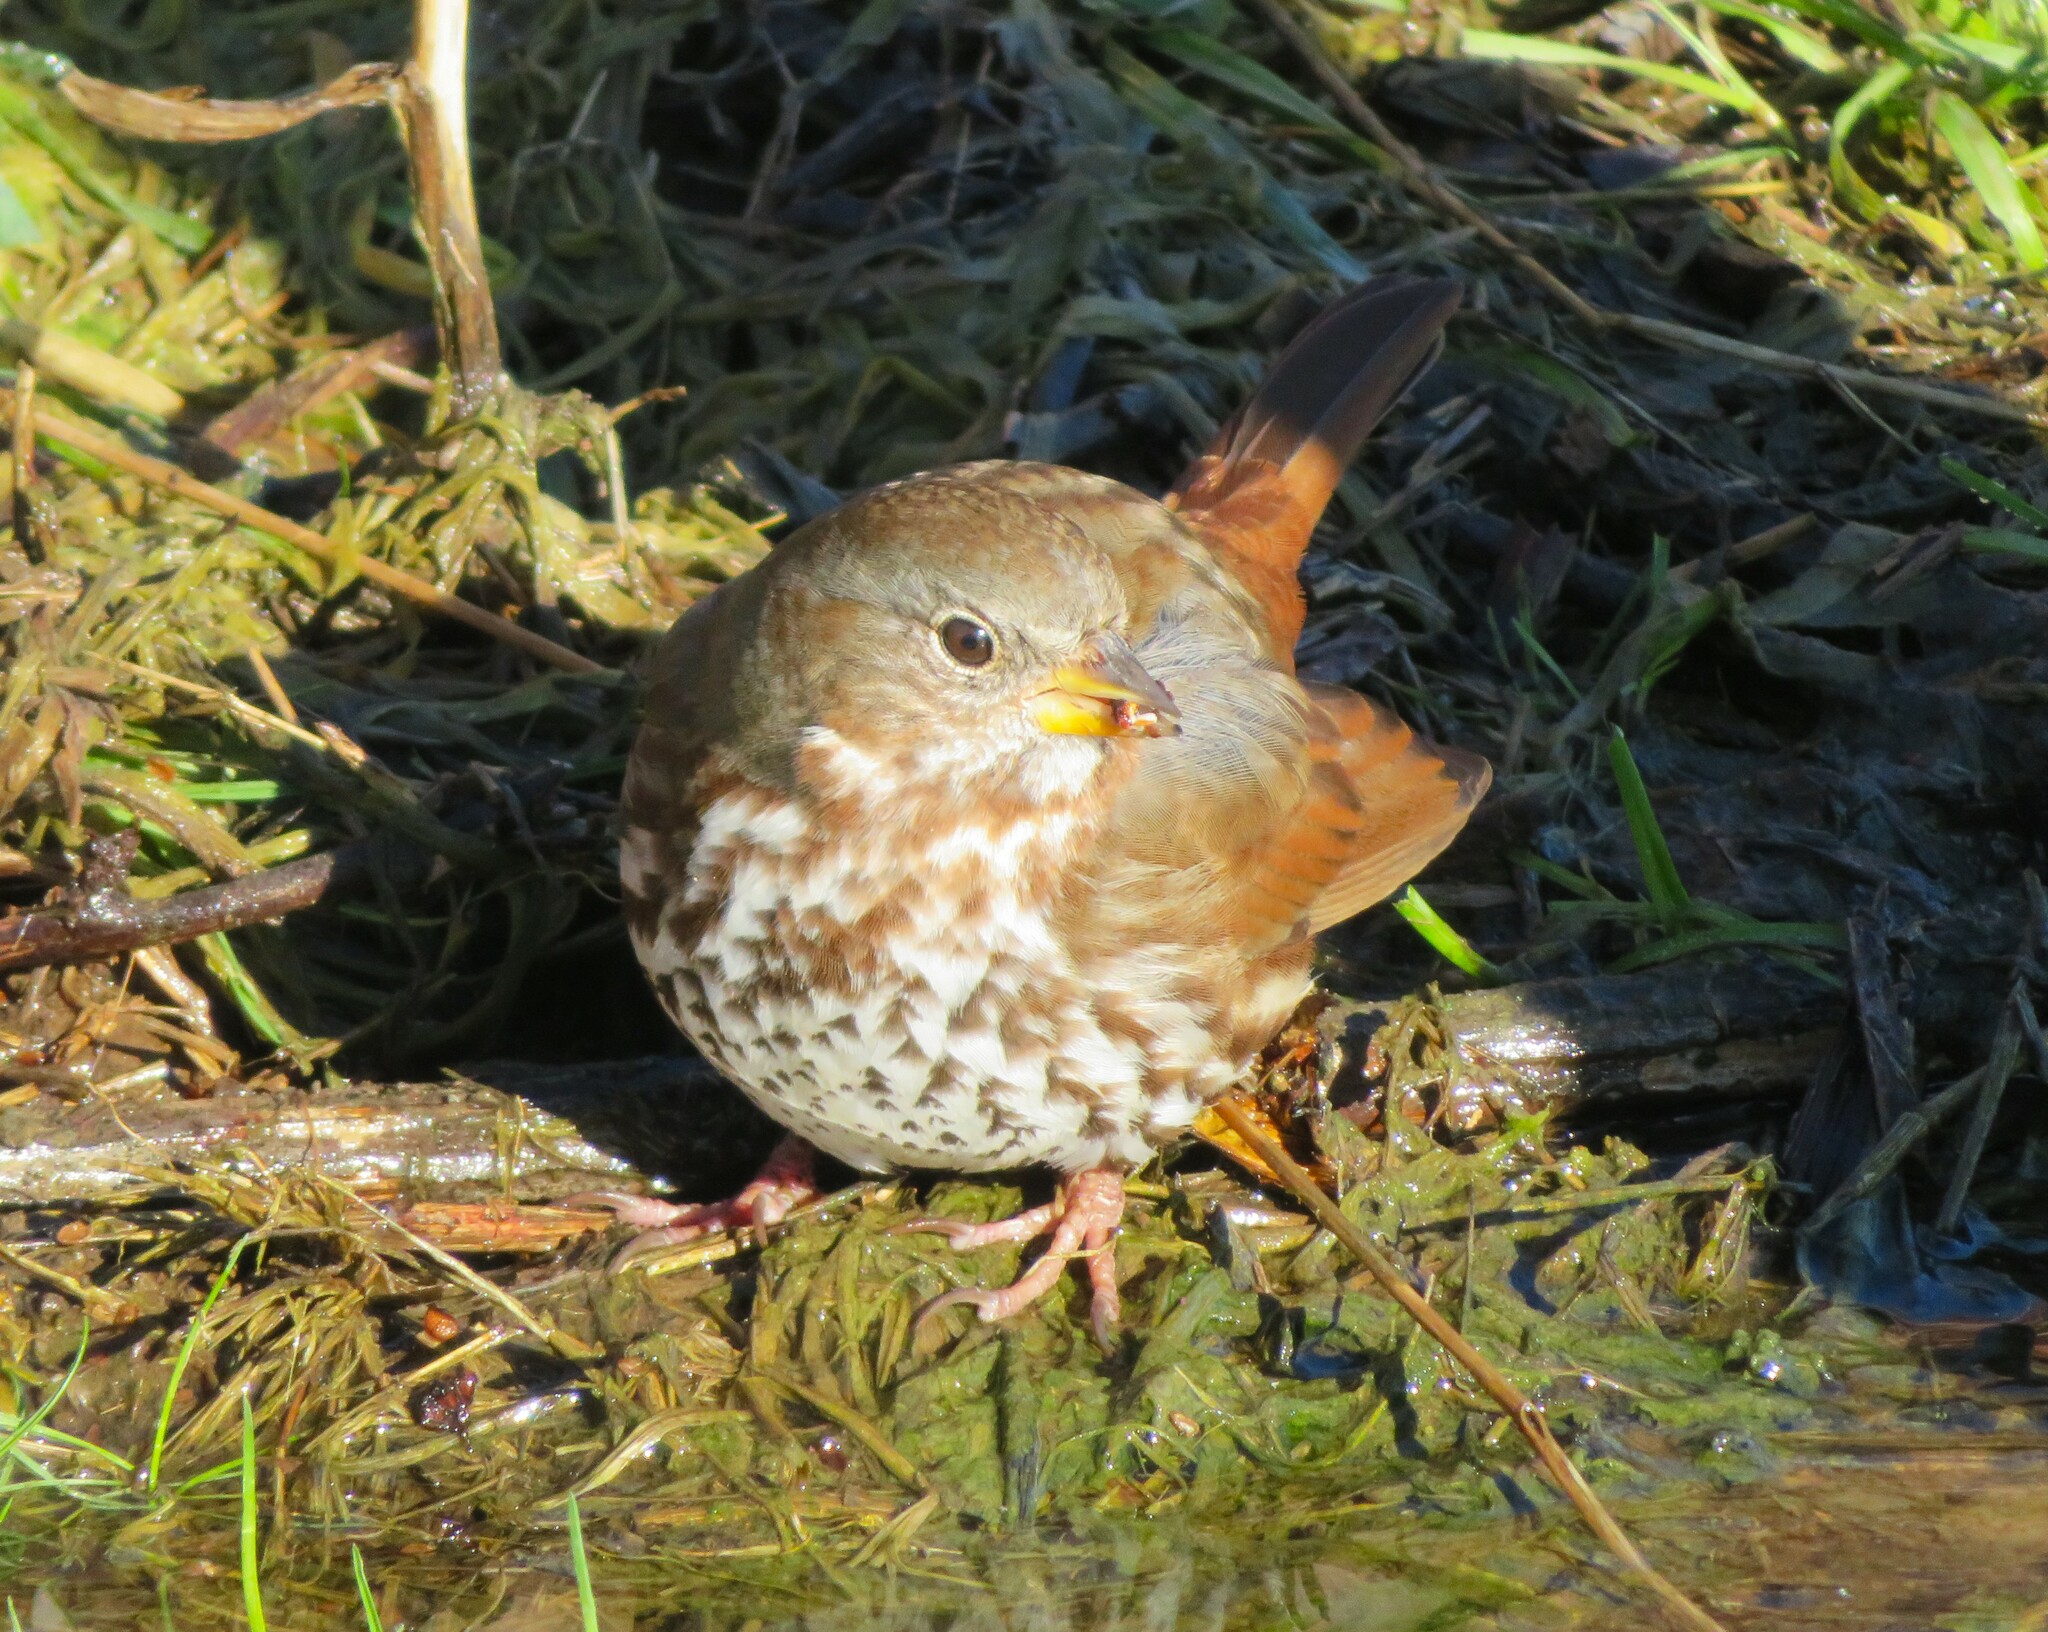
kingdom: Animalia
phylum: Chordata
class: Aves
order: Passeriformes
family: Passerellidae
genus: Passerella
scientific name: Passerella iliaca
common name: Fox sparrow
